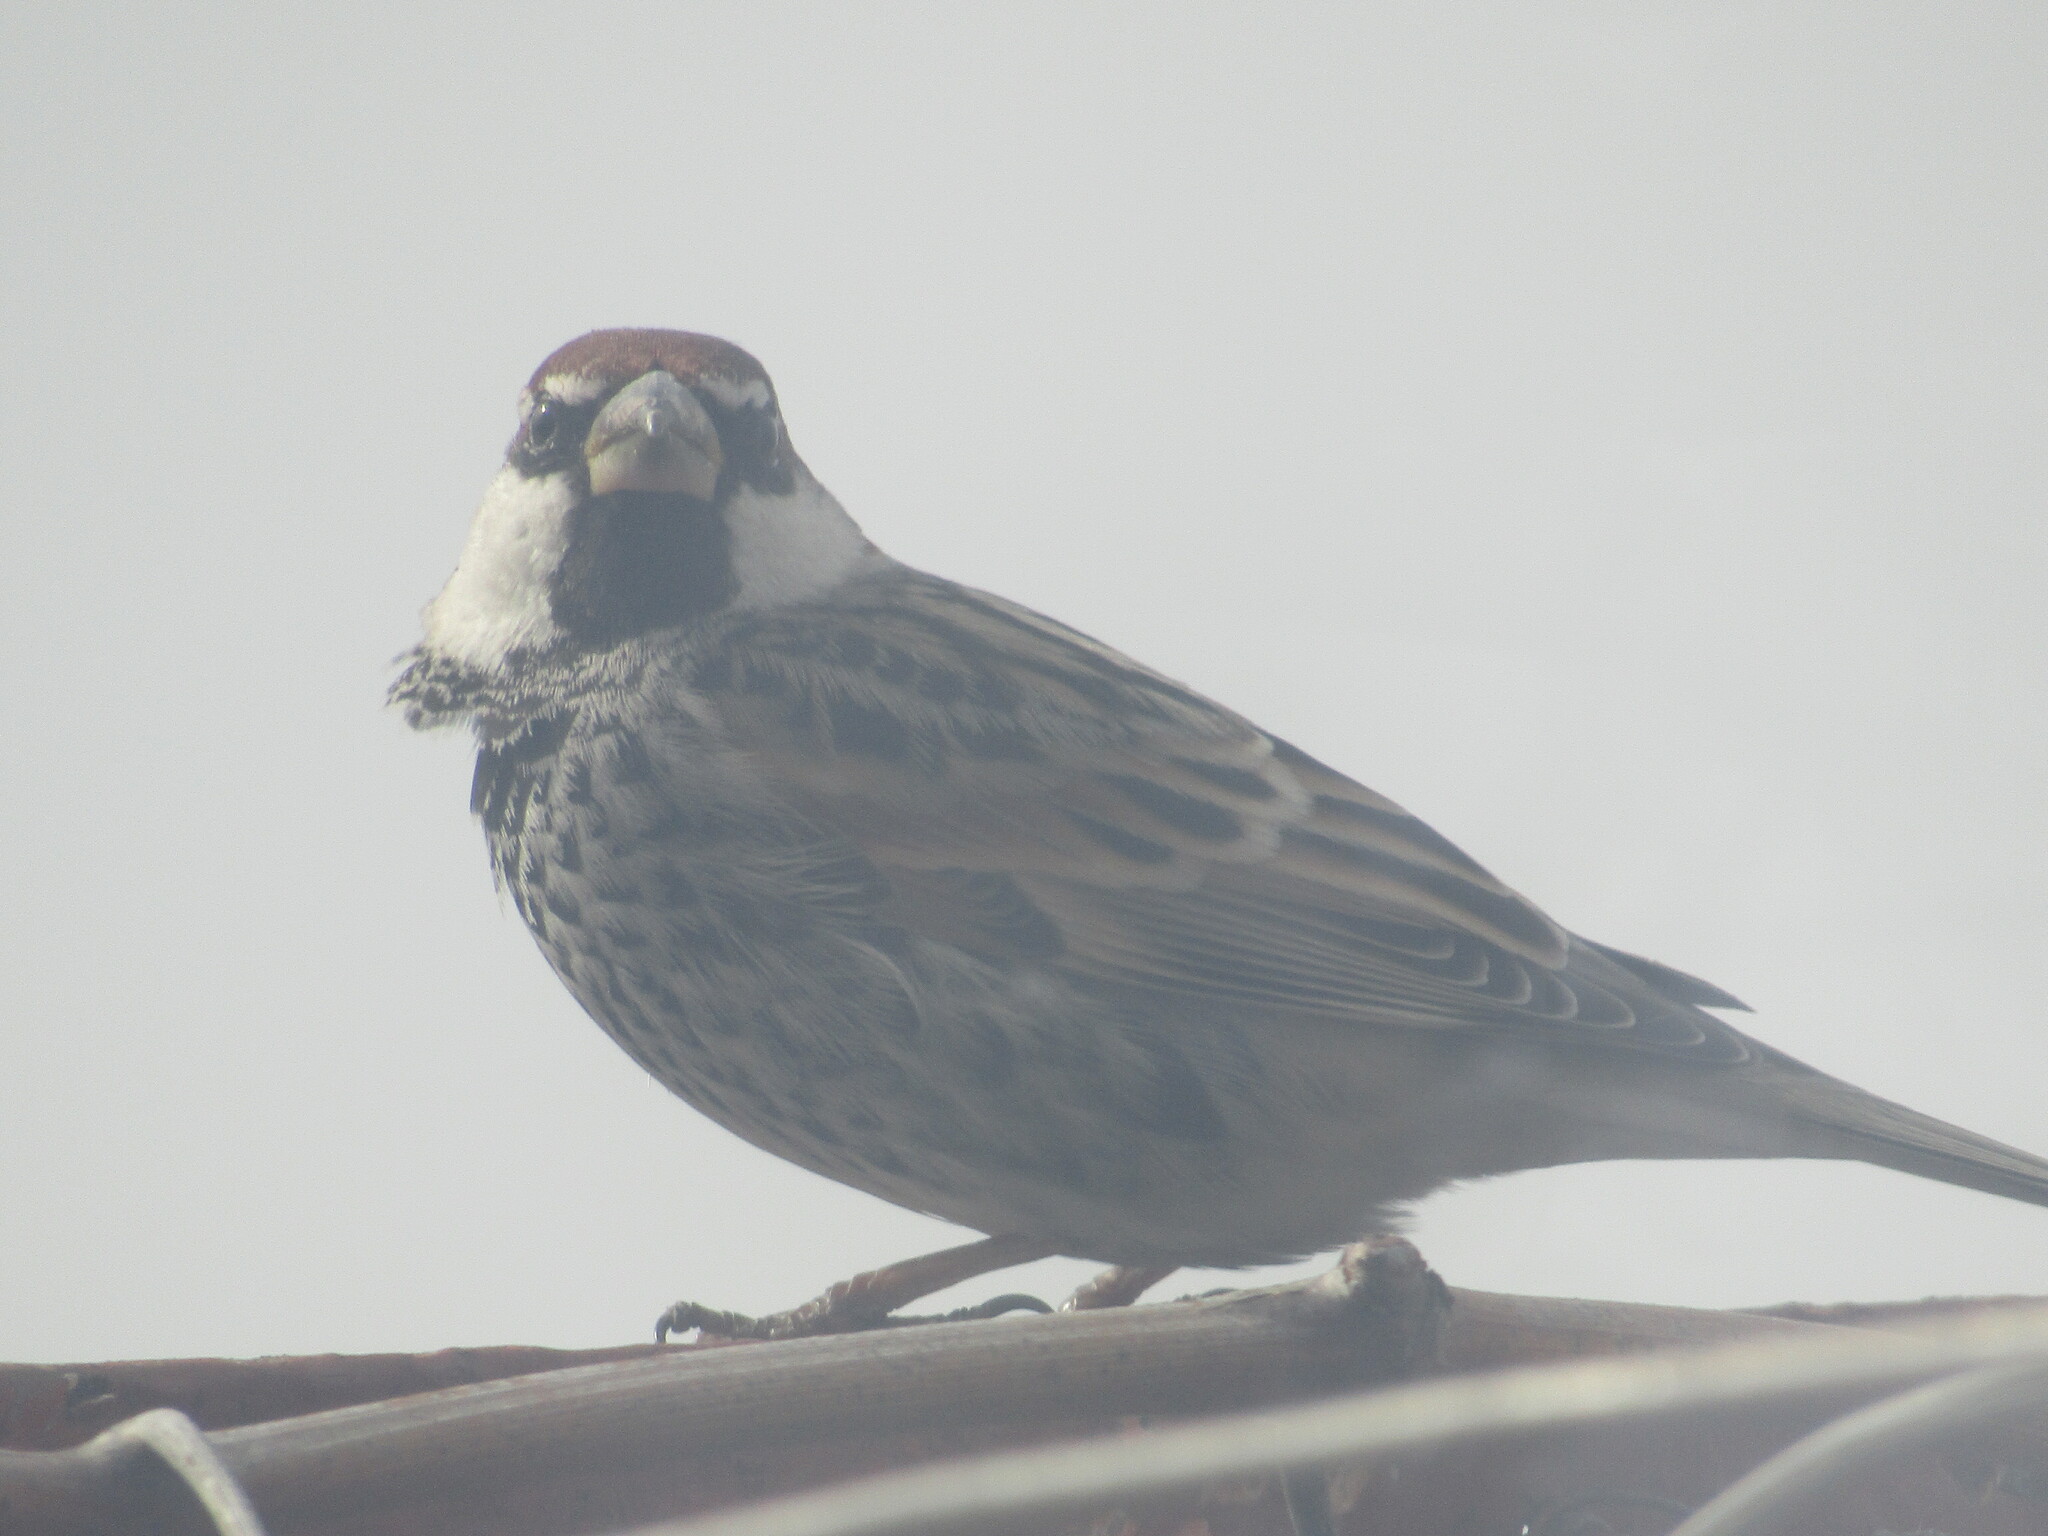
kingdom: Animalia
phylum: Chordata
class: Aves
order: Passeriformes
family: Passeridae
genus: Passer
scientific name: Passer hispaniolensis
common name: Spanish sparrow
